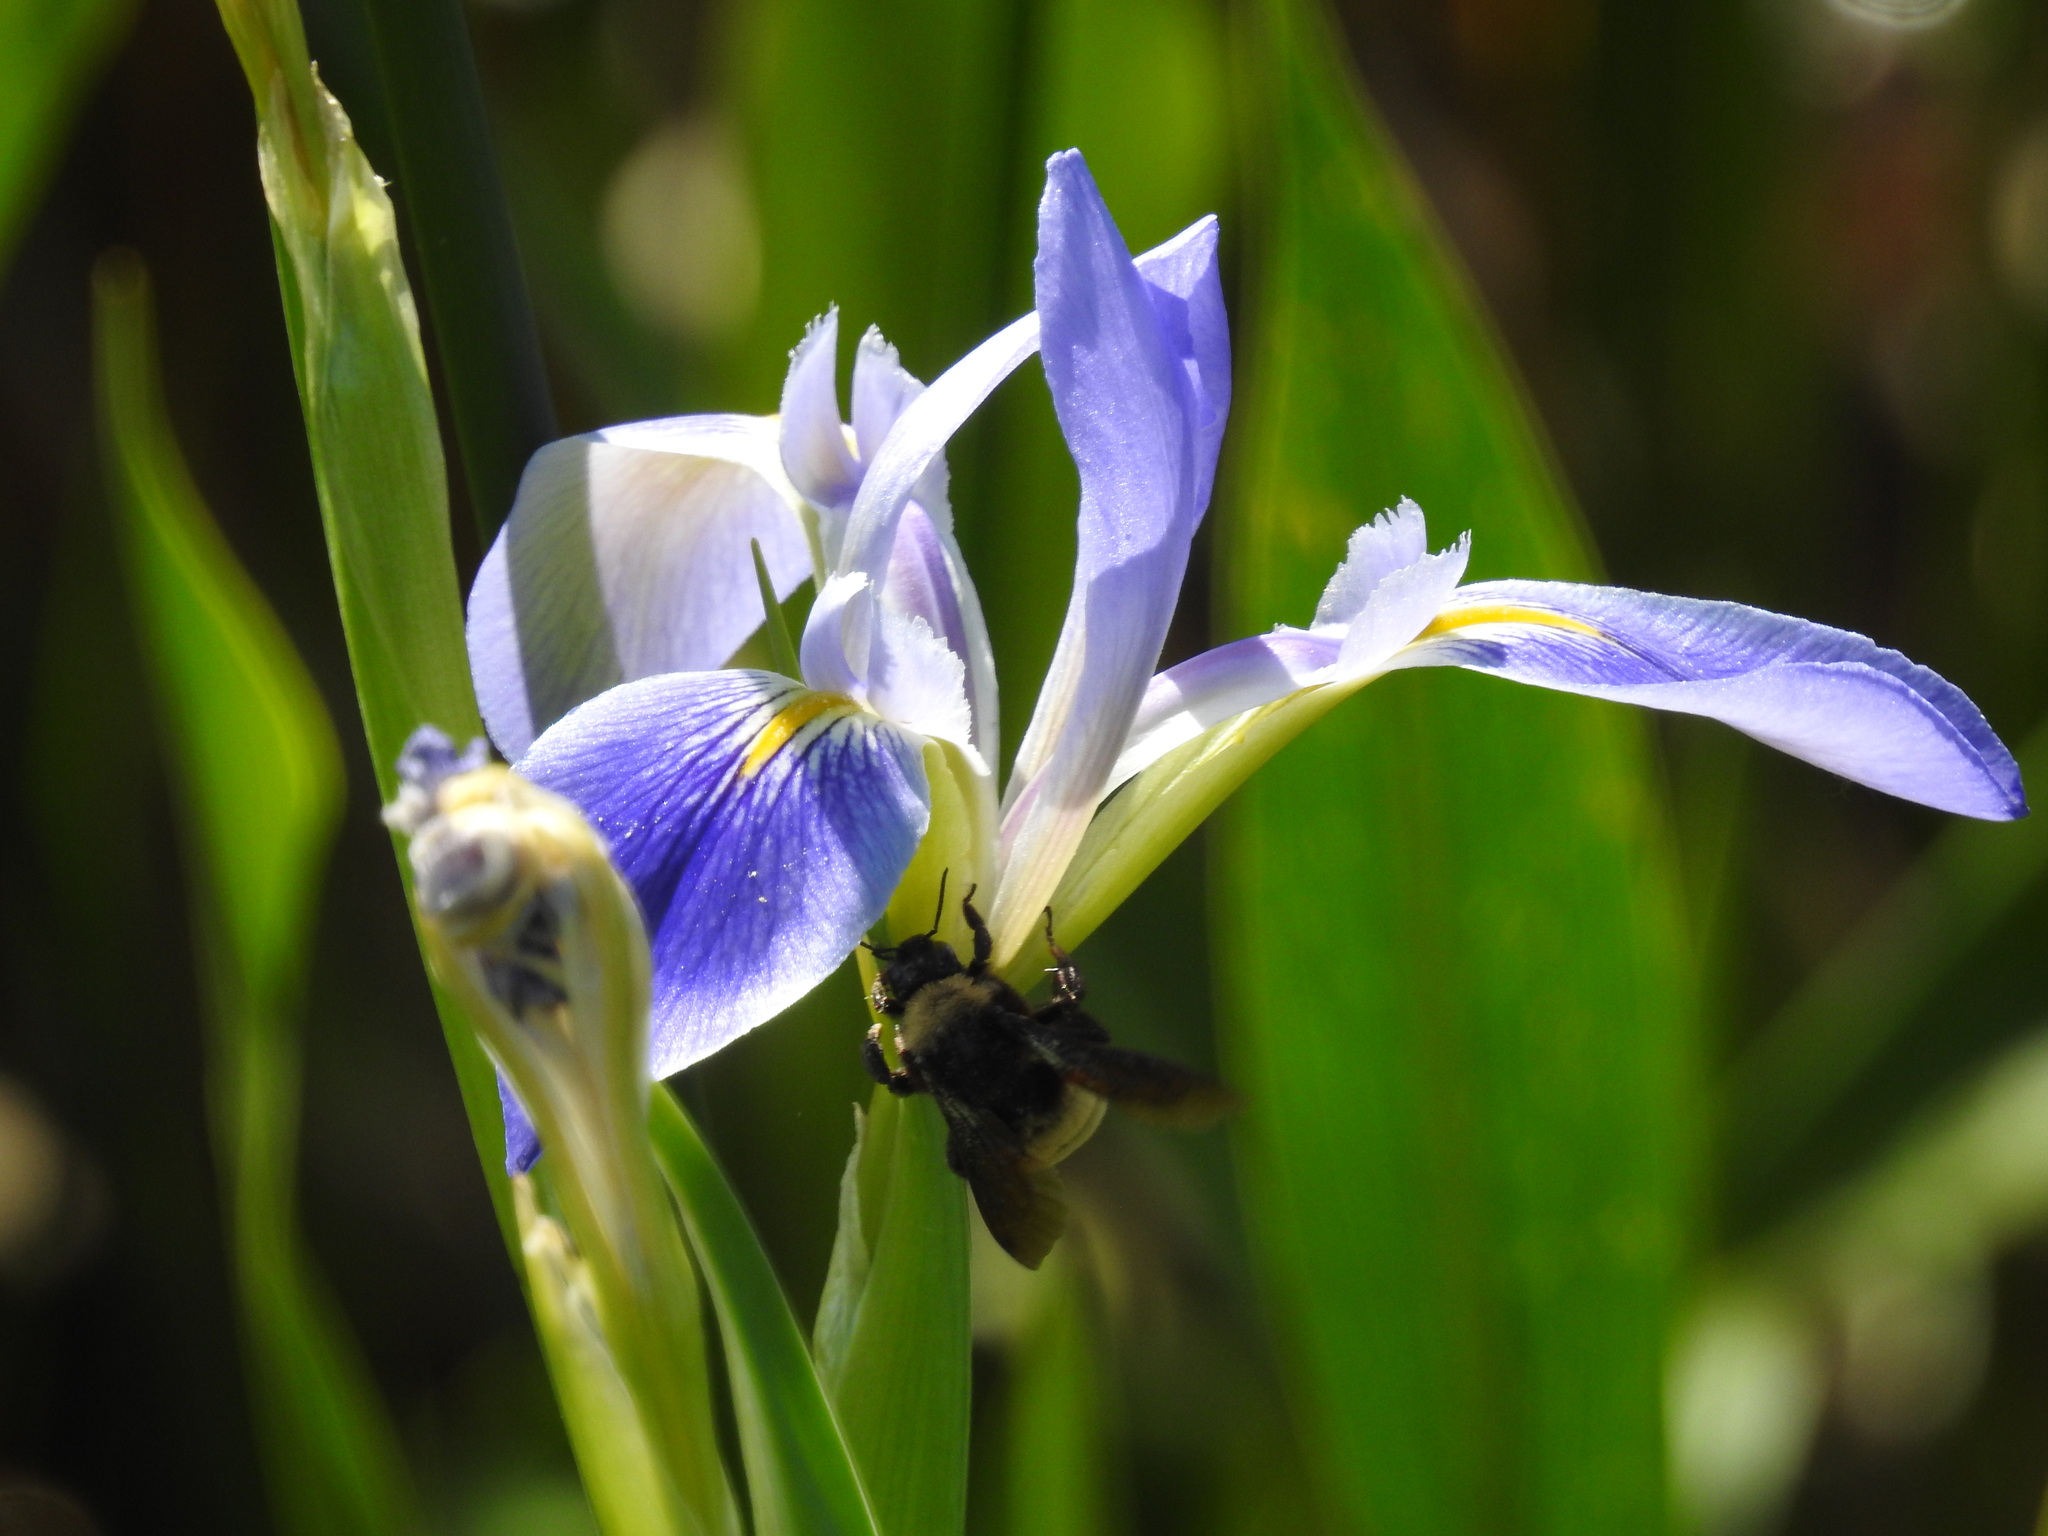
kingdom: Animalia
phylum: Arthropoda
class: Insecta
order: Hymenoptera
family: Apidae
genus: Bombus
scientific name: Bombus pensylvanicus
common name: Bumble bee
